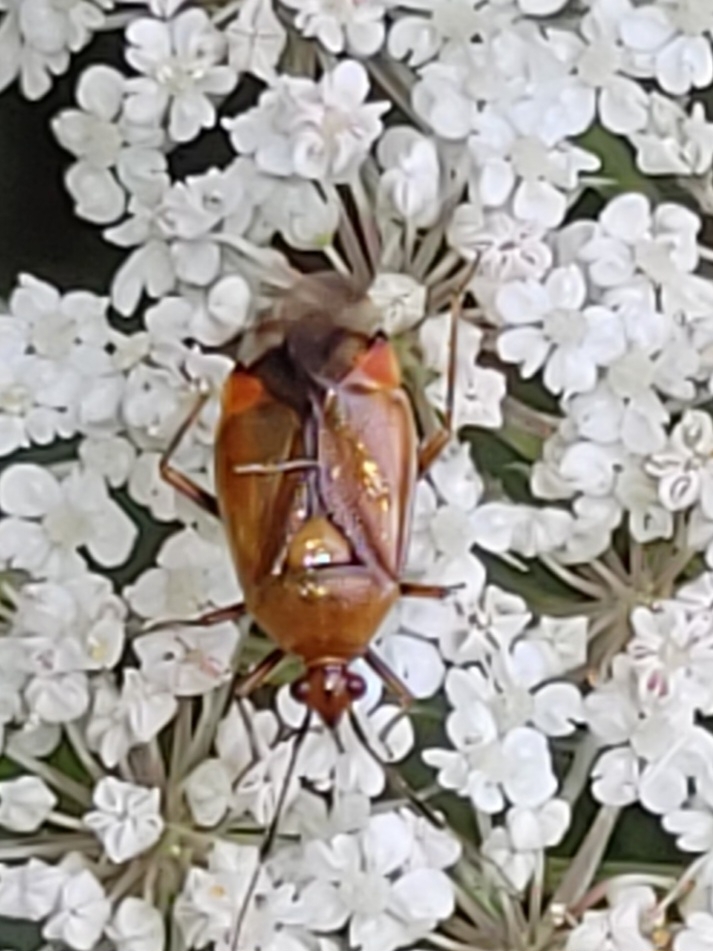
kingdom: Animalia
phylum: Arthropoda
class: Insecta
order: Hemiptera
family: Miridae
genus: Deraeocoris
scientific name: Deraeocoris ruber
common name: Plant bug
